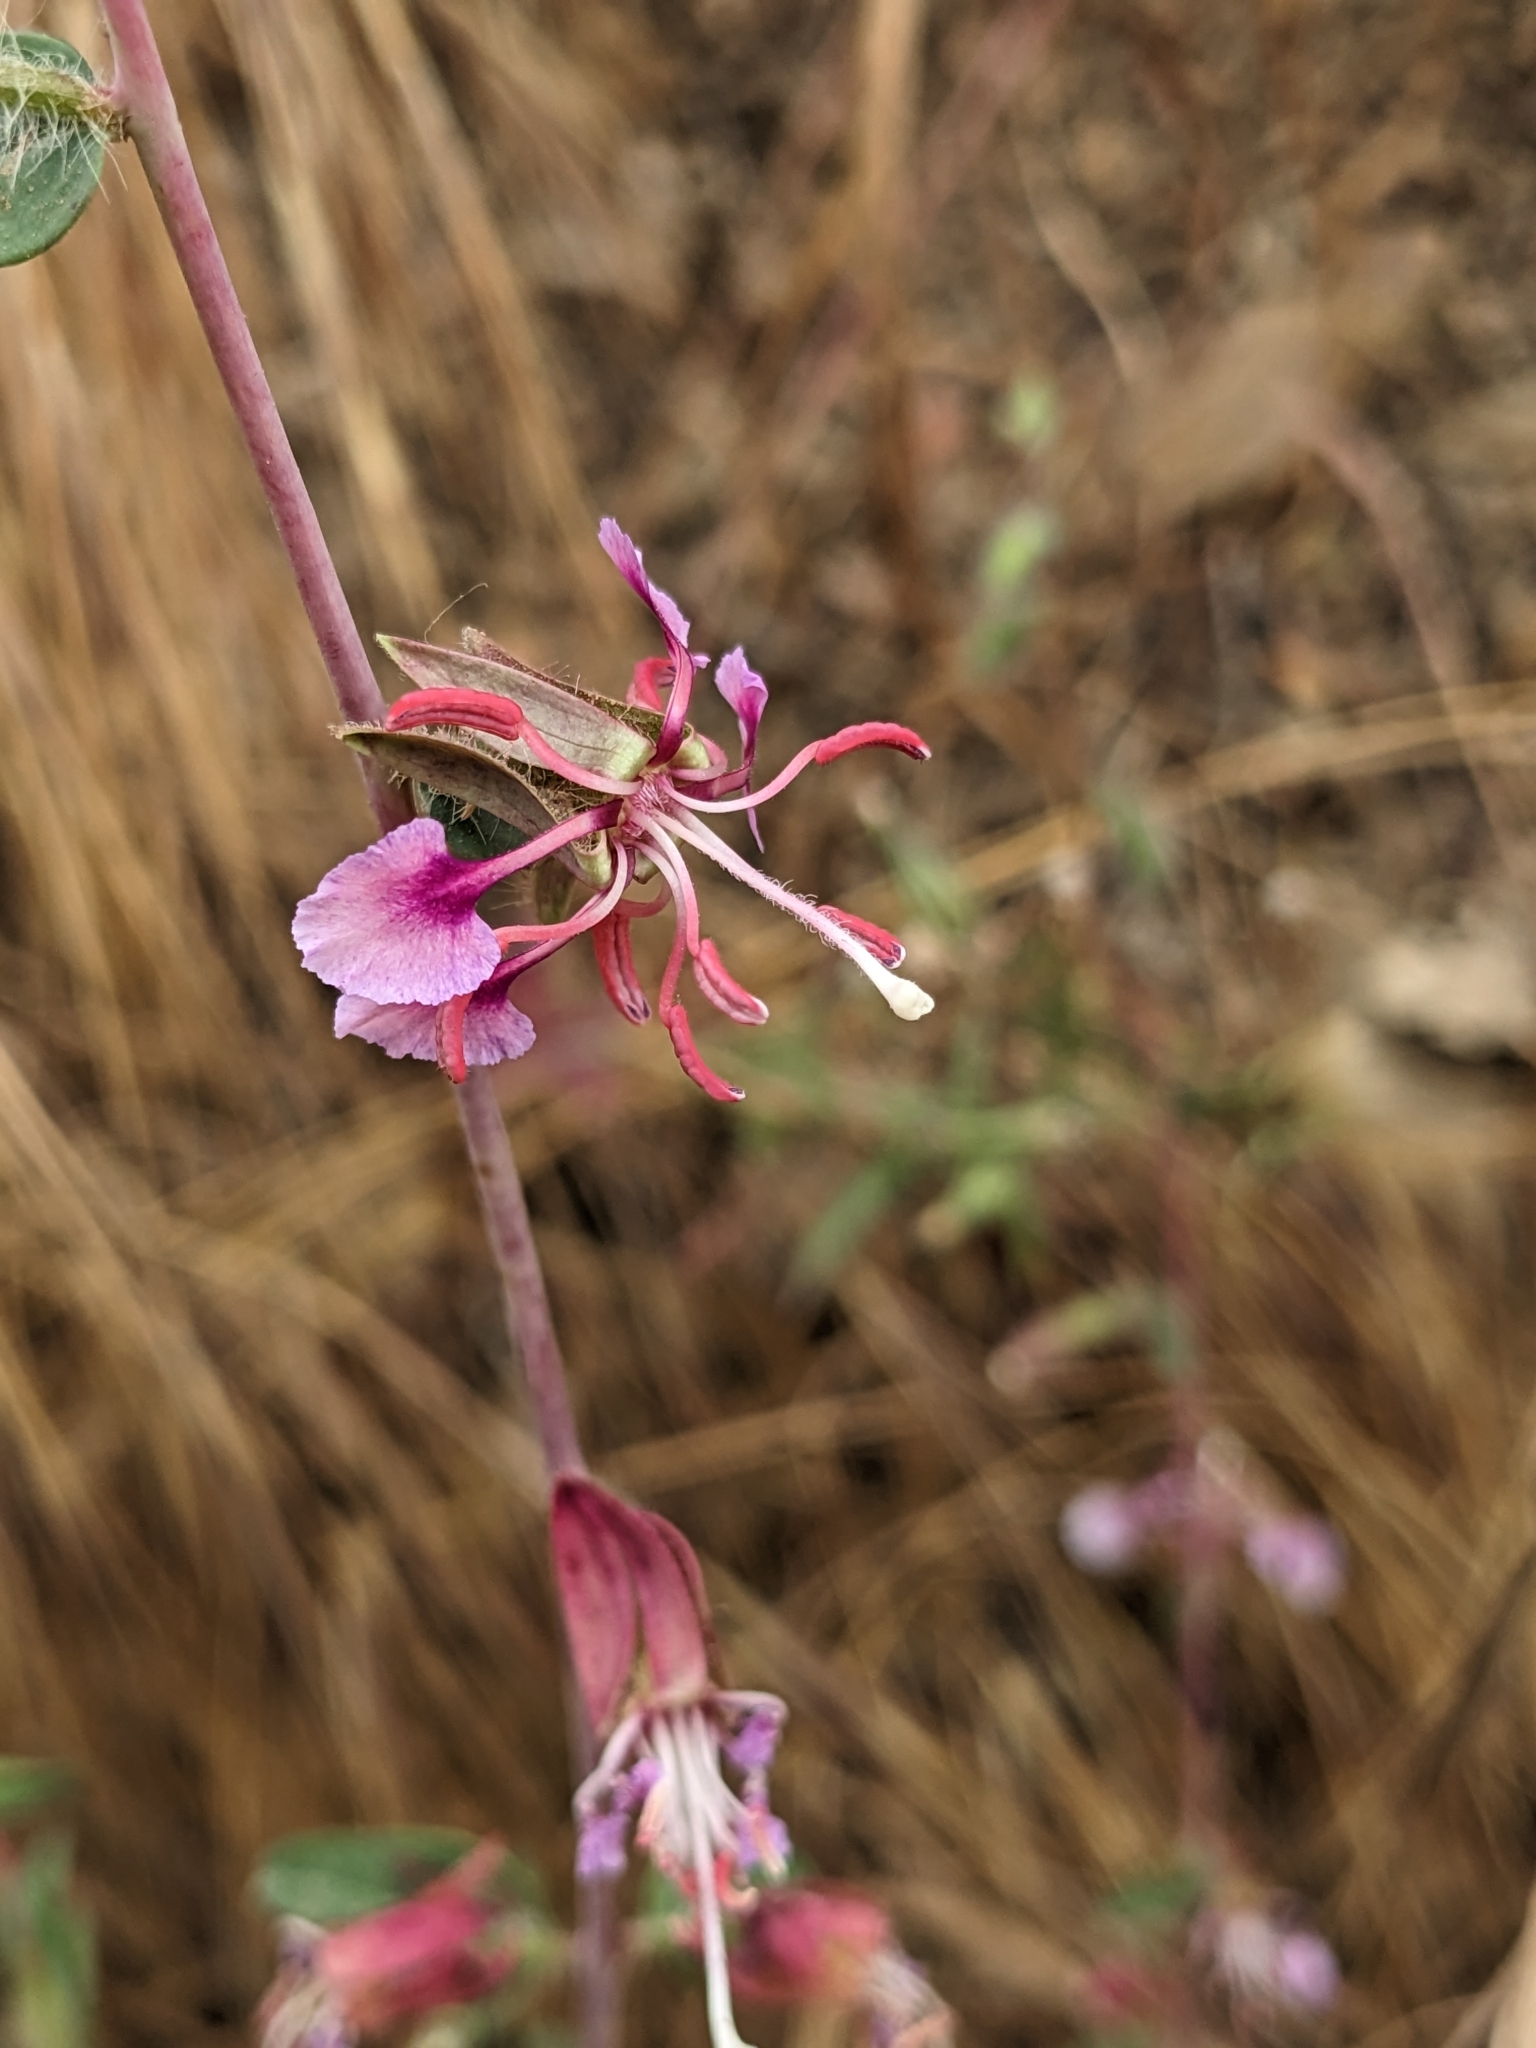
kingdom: Plantae
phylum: Tracheophyta
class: Magnoliopsida
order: Myrtales
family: Onagraceae
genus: Clarkia
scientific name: Clarkia unguiculata
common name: Clarkia
